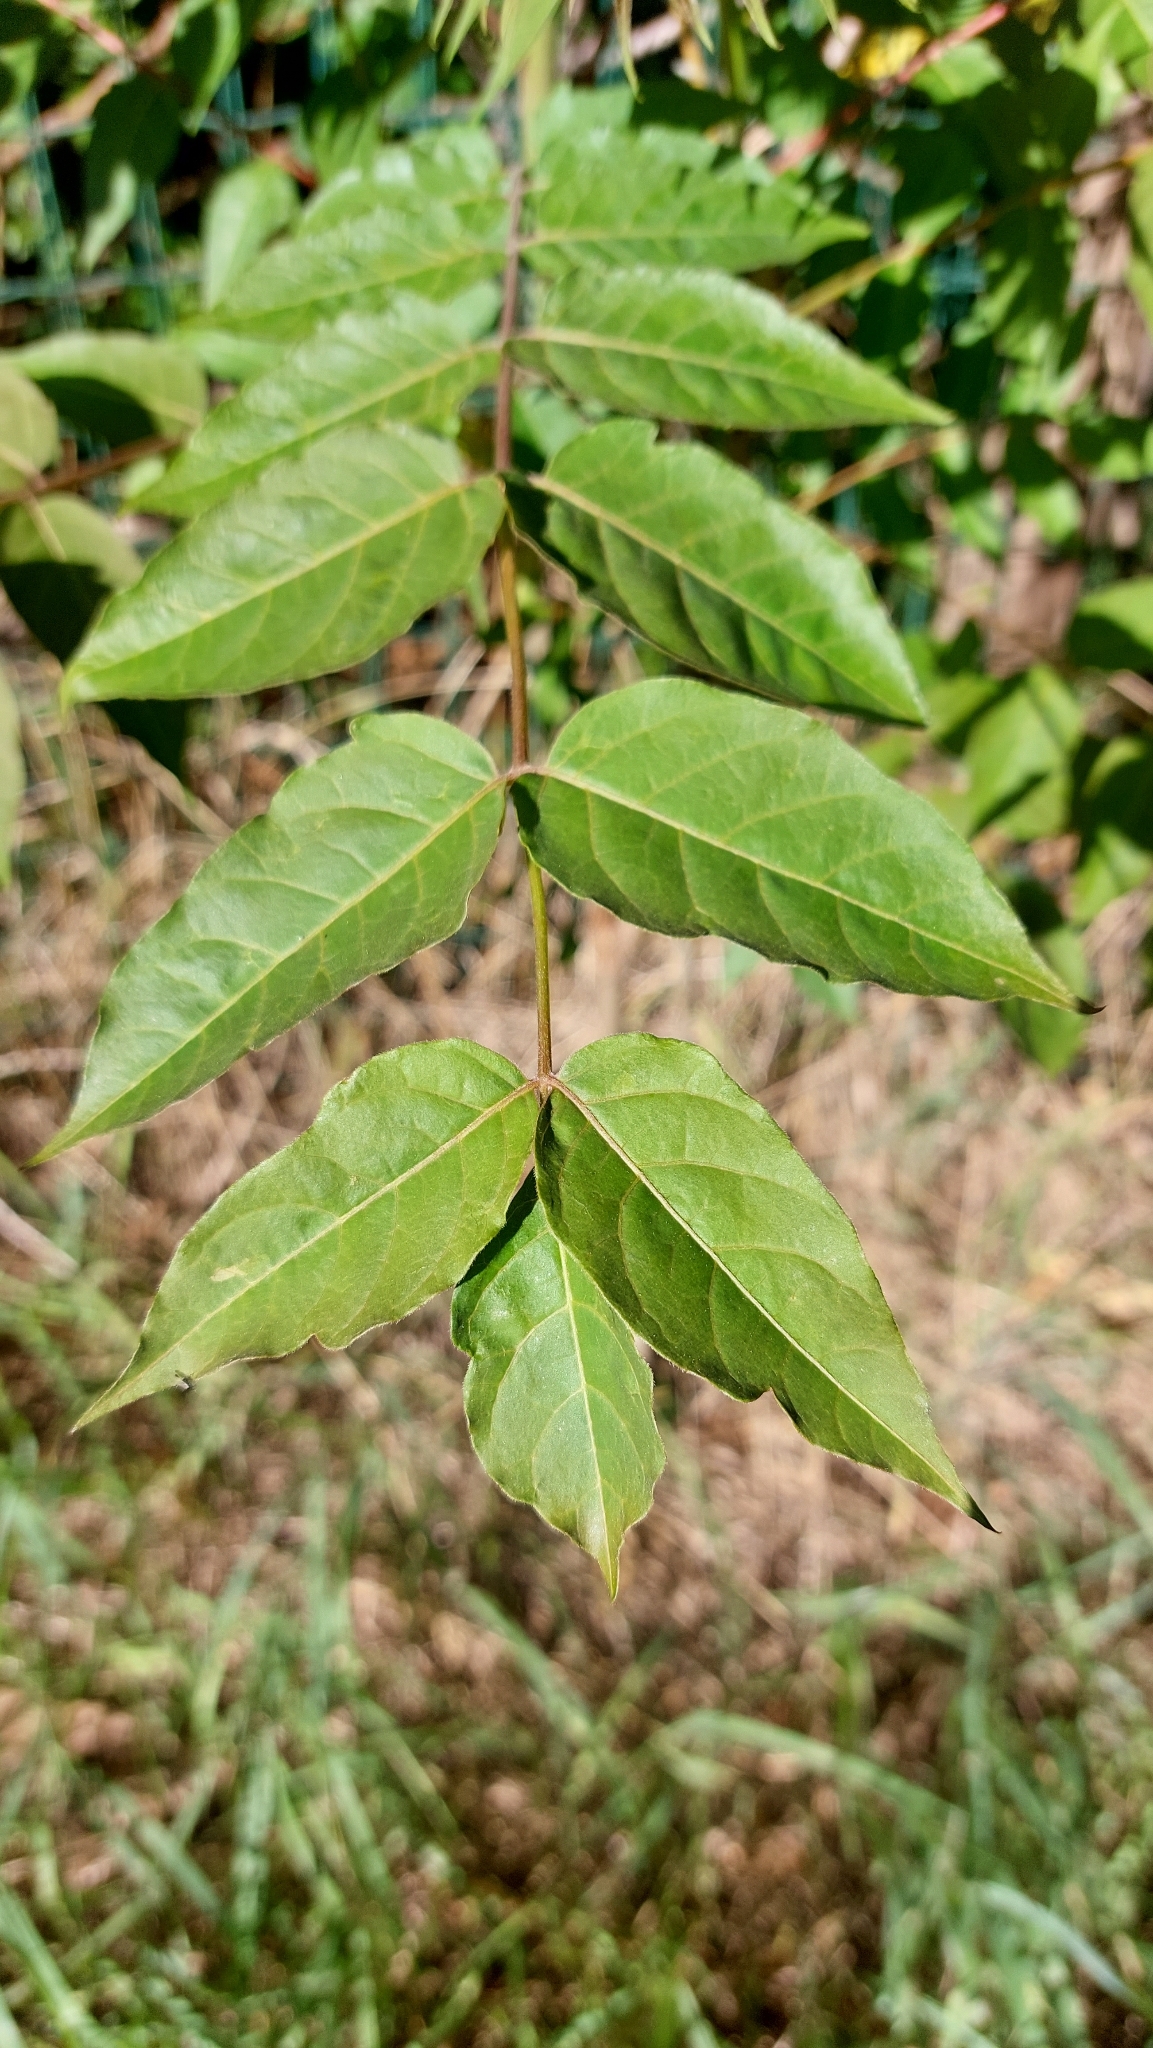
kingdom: Plantae
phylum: Tracheophyta
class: Magnoliopsida
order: Sapindales
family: Simaroubaceae
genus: Ailanthus
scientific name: Ailanthus altissima
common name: Tree-of-heaven
